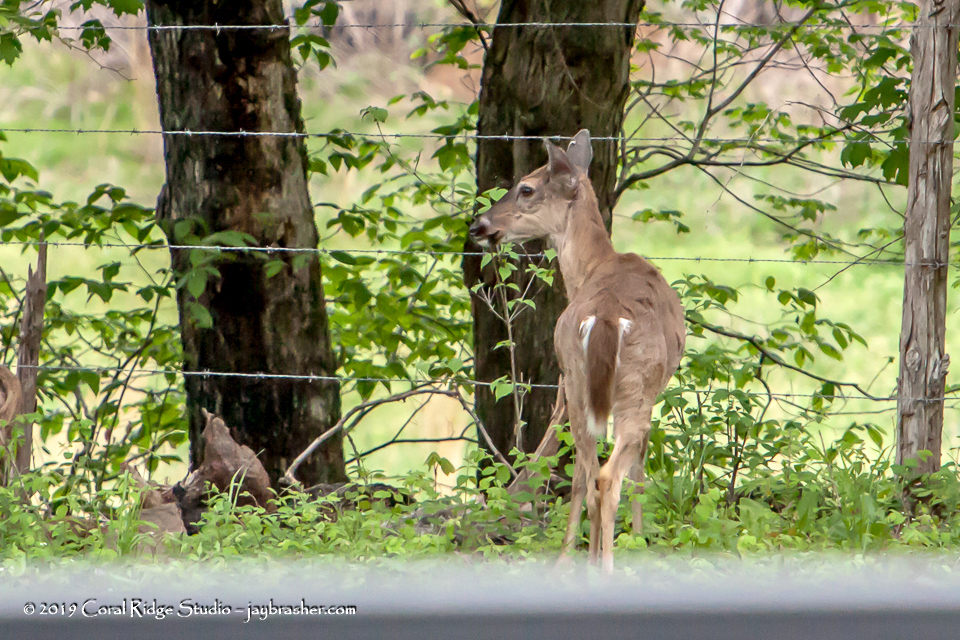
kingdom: Animalia
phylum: Chordata
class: Mammalia
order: Artiodactyla
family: Cervidae
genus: Odocoileus
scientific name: Odocoileus virginianus
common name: White-tailed deer
